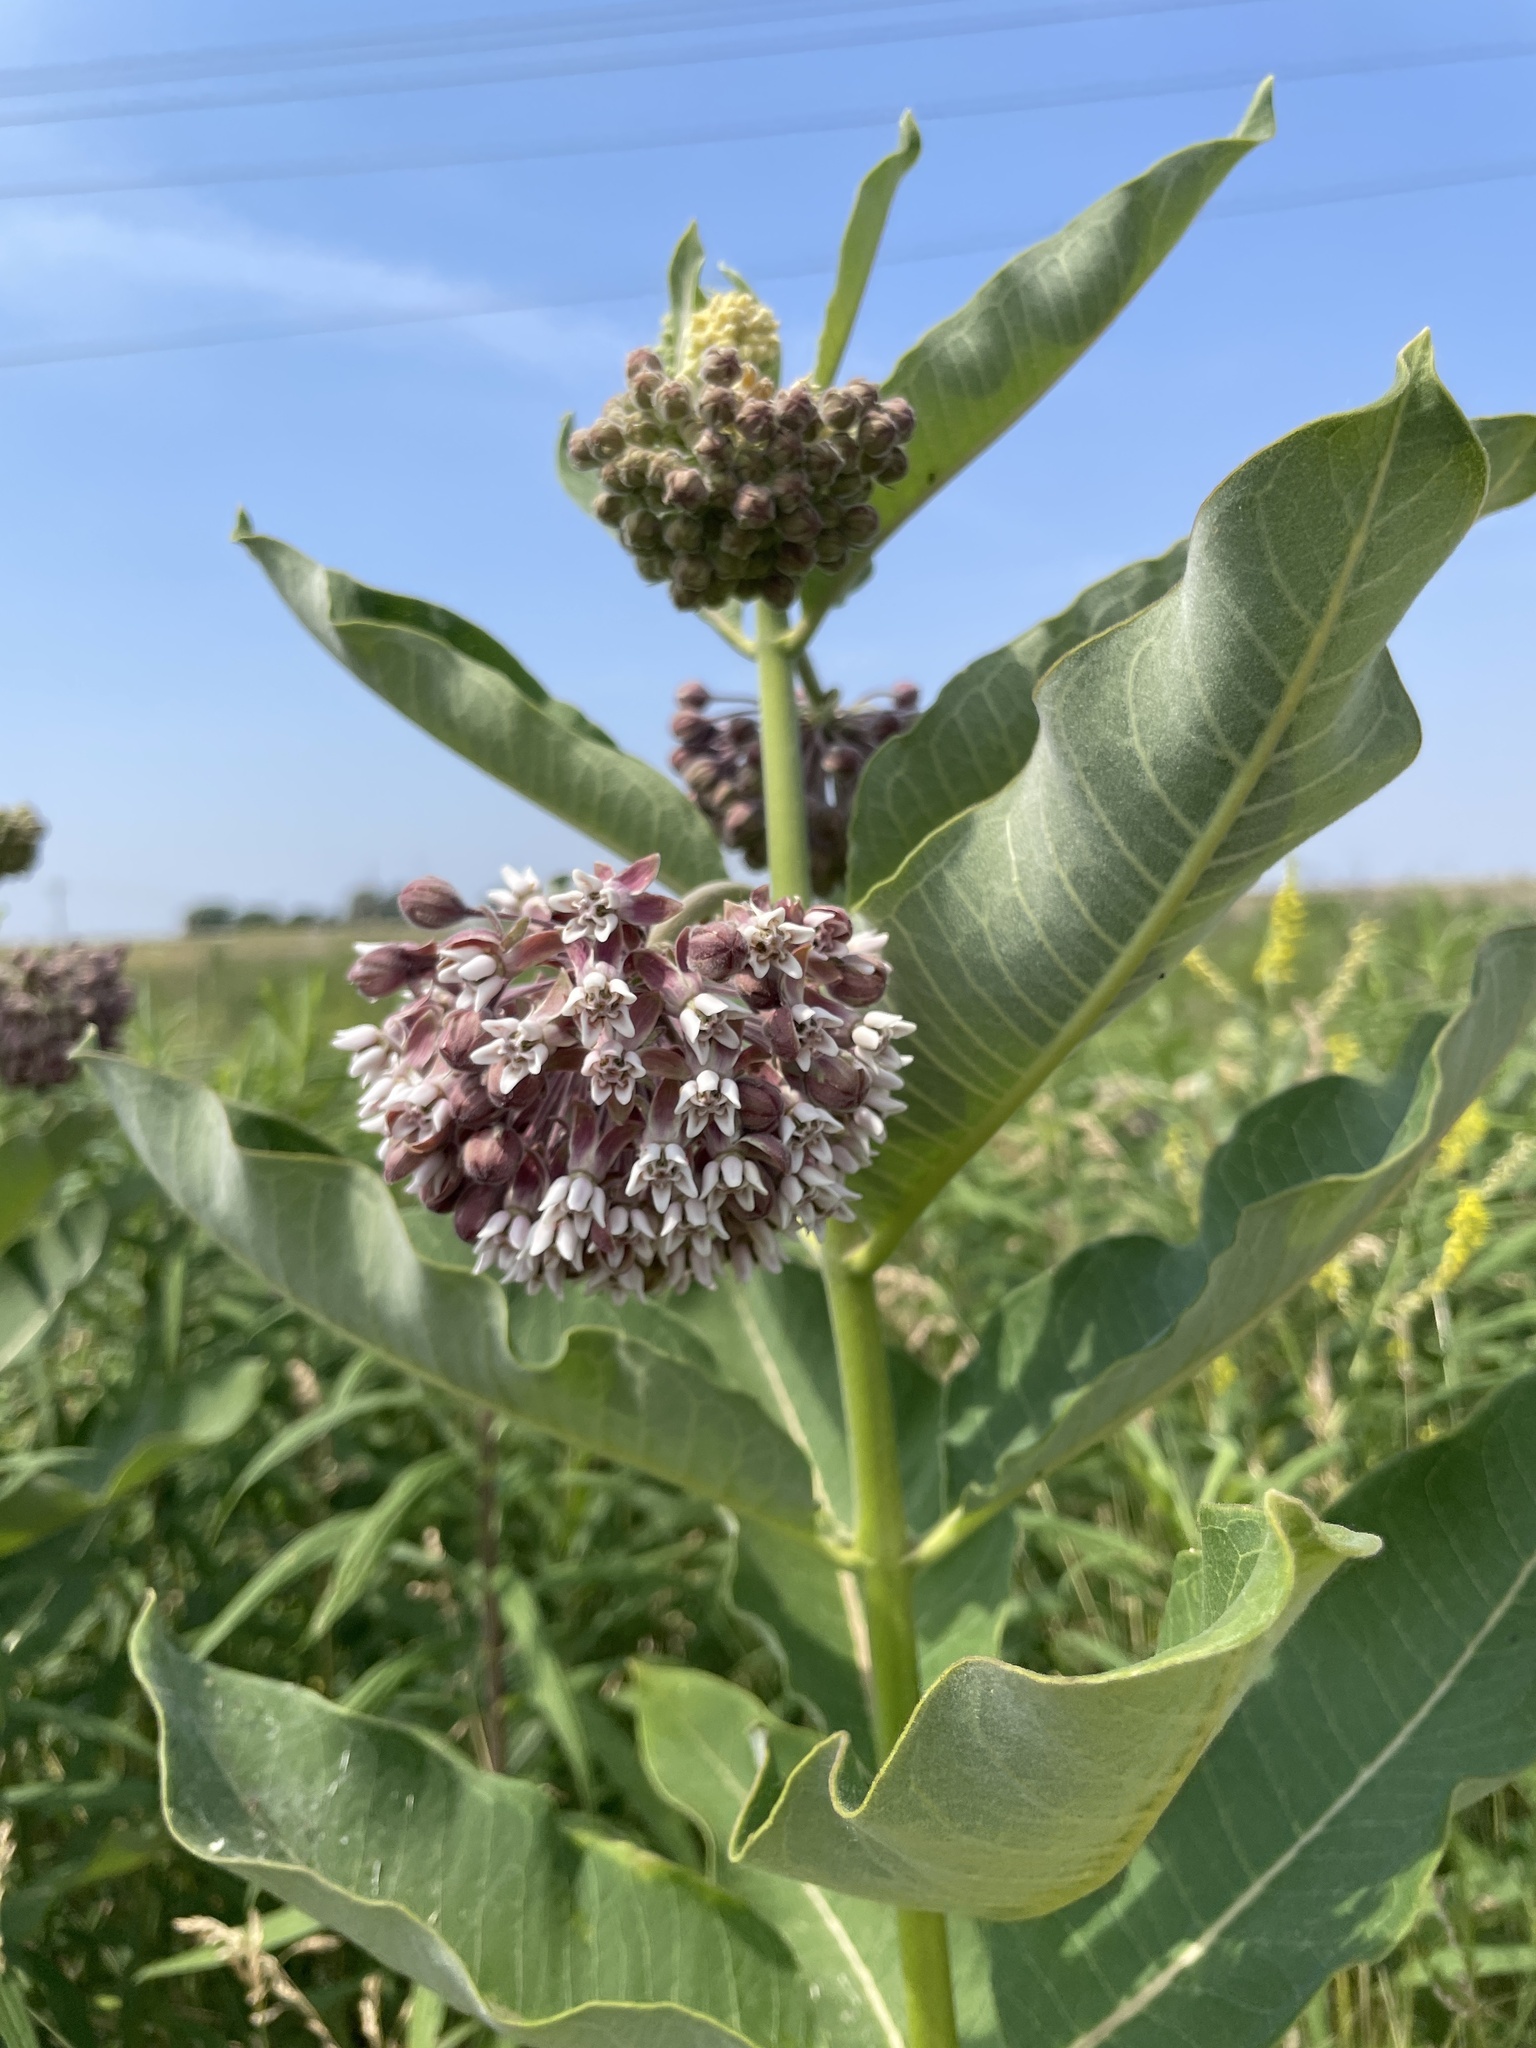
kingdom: Plantae
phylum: Tracheophyta
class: Magnoliopsida
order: Gentianales
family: Apocynaceae
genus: Asclepias
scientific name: Asclepias syriaca
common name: Common milkweed
